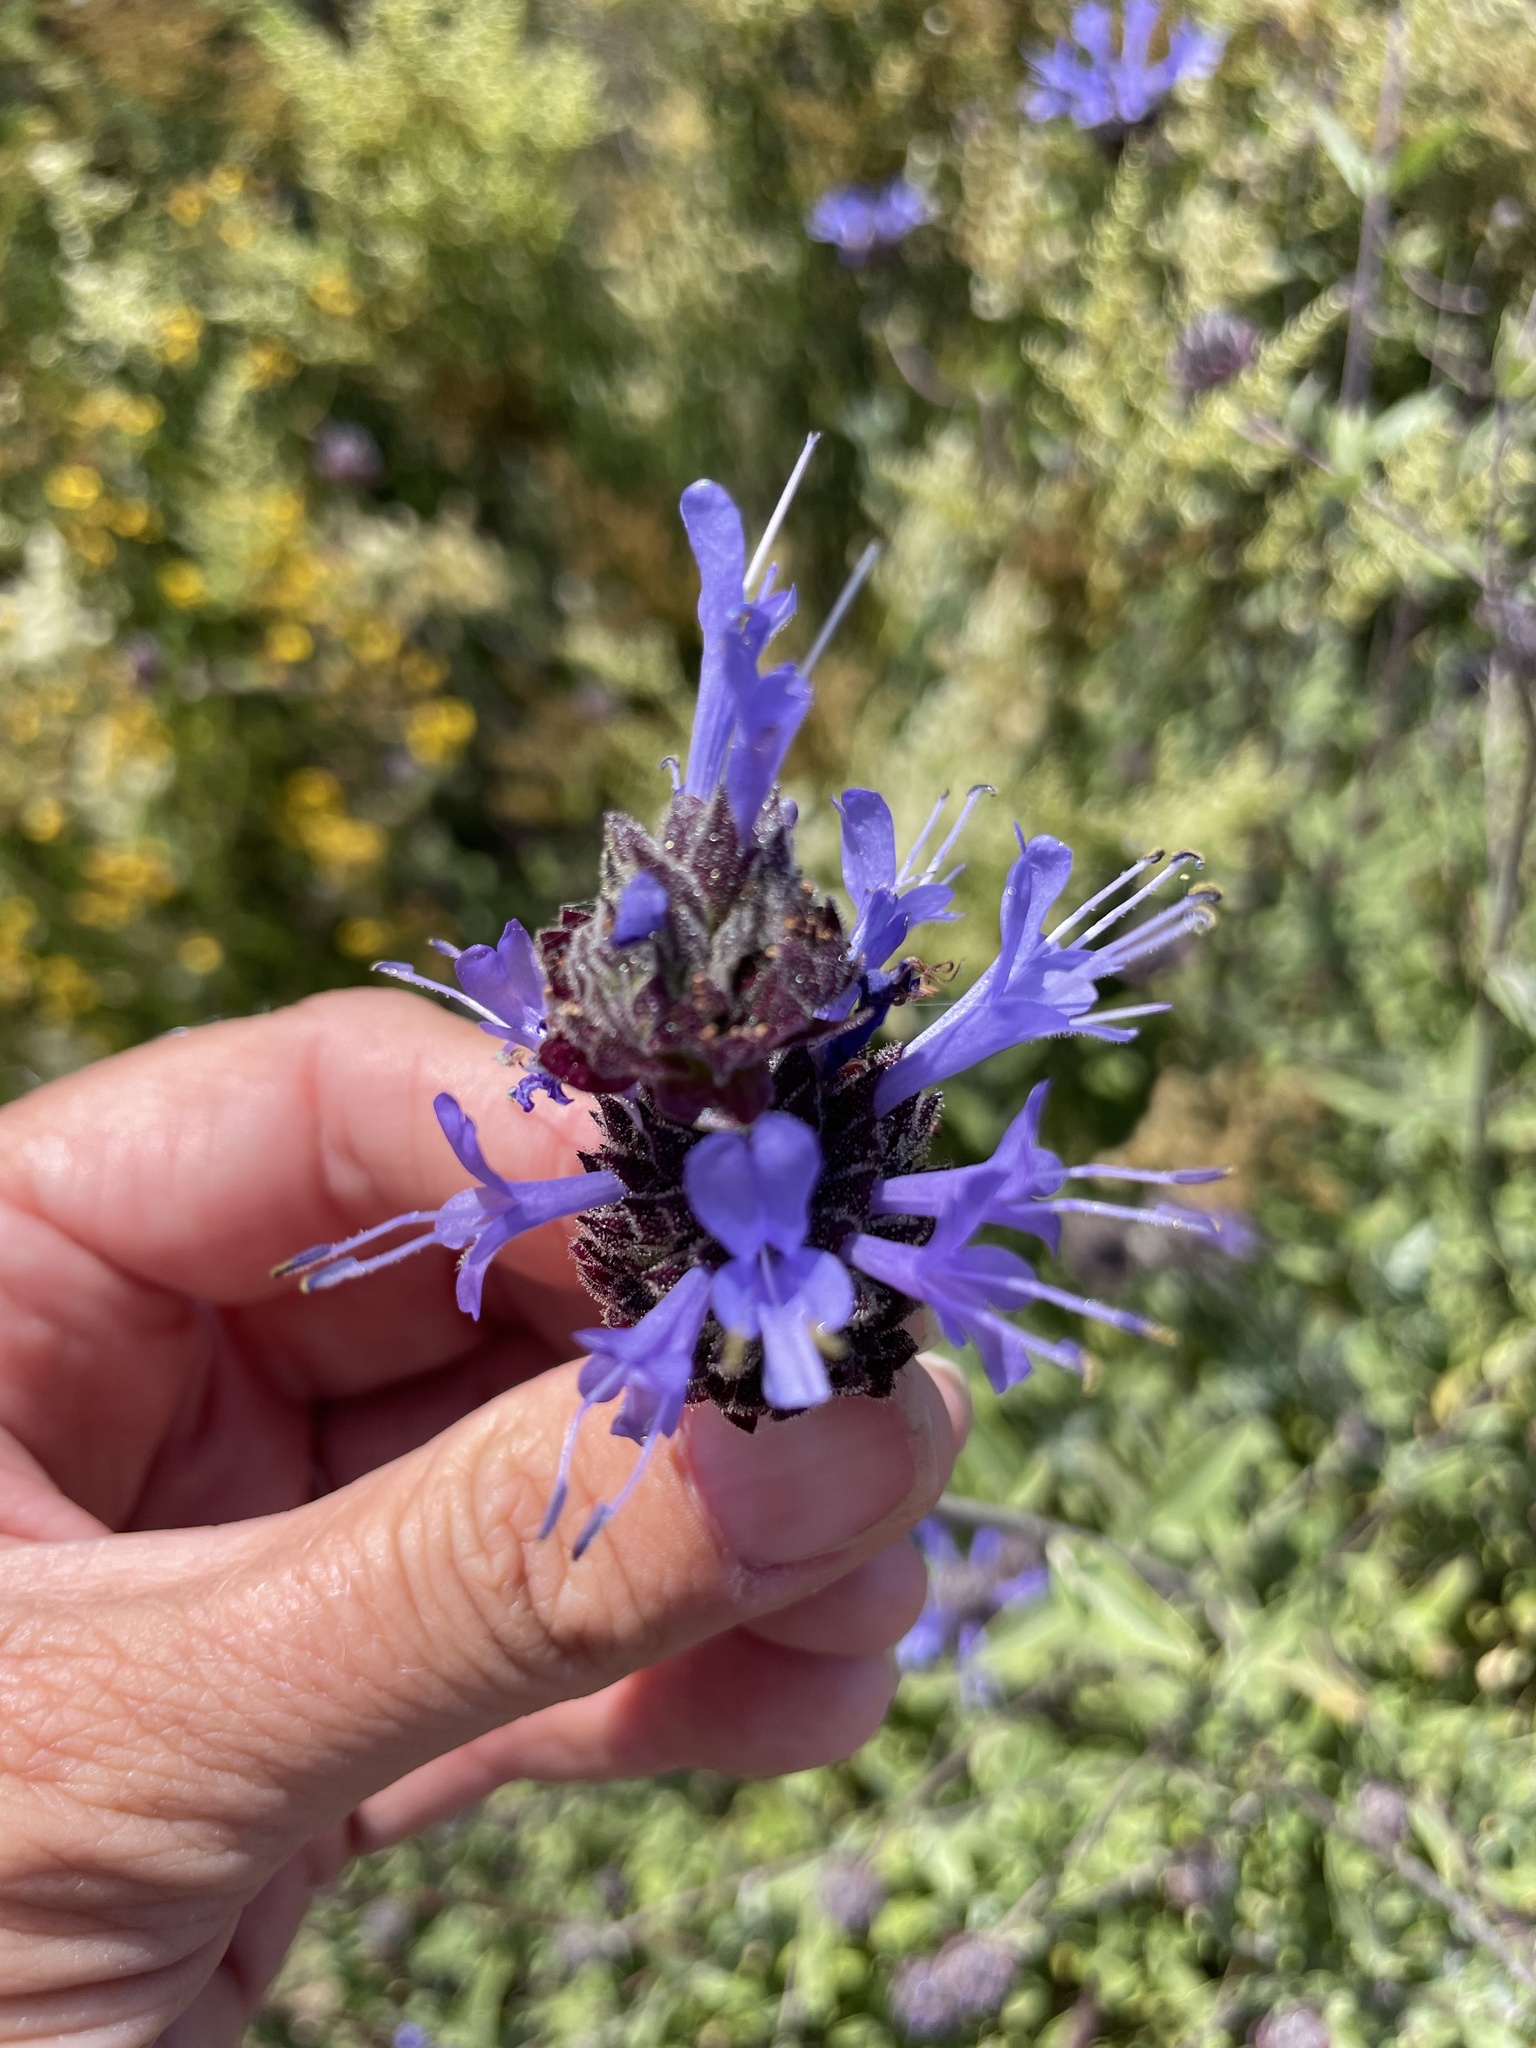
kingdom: Plantae
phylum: Tracheophyta
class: Magnoliopsida
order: Lamiales
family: Lamiaceae
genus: Salvia
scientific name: Salvia clevelandii
